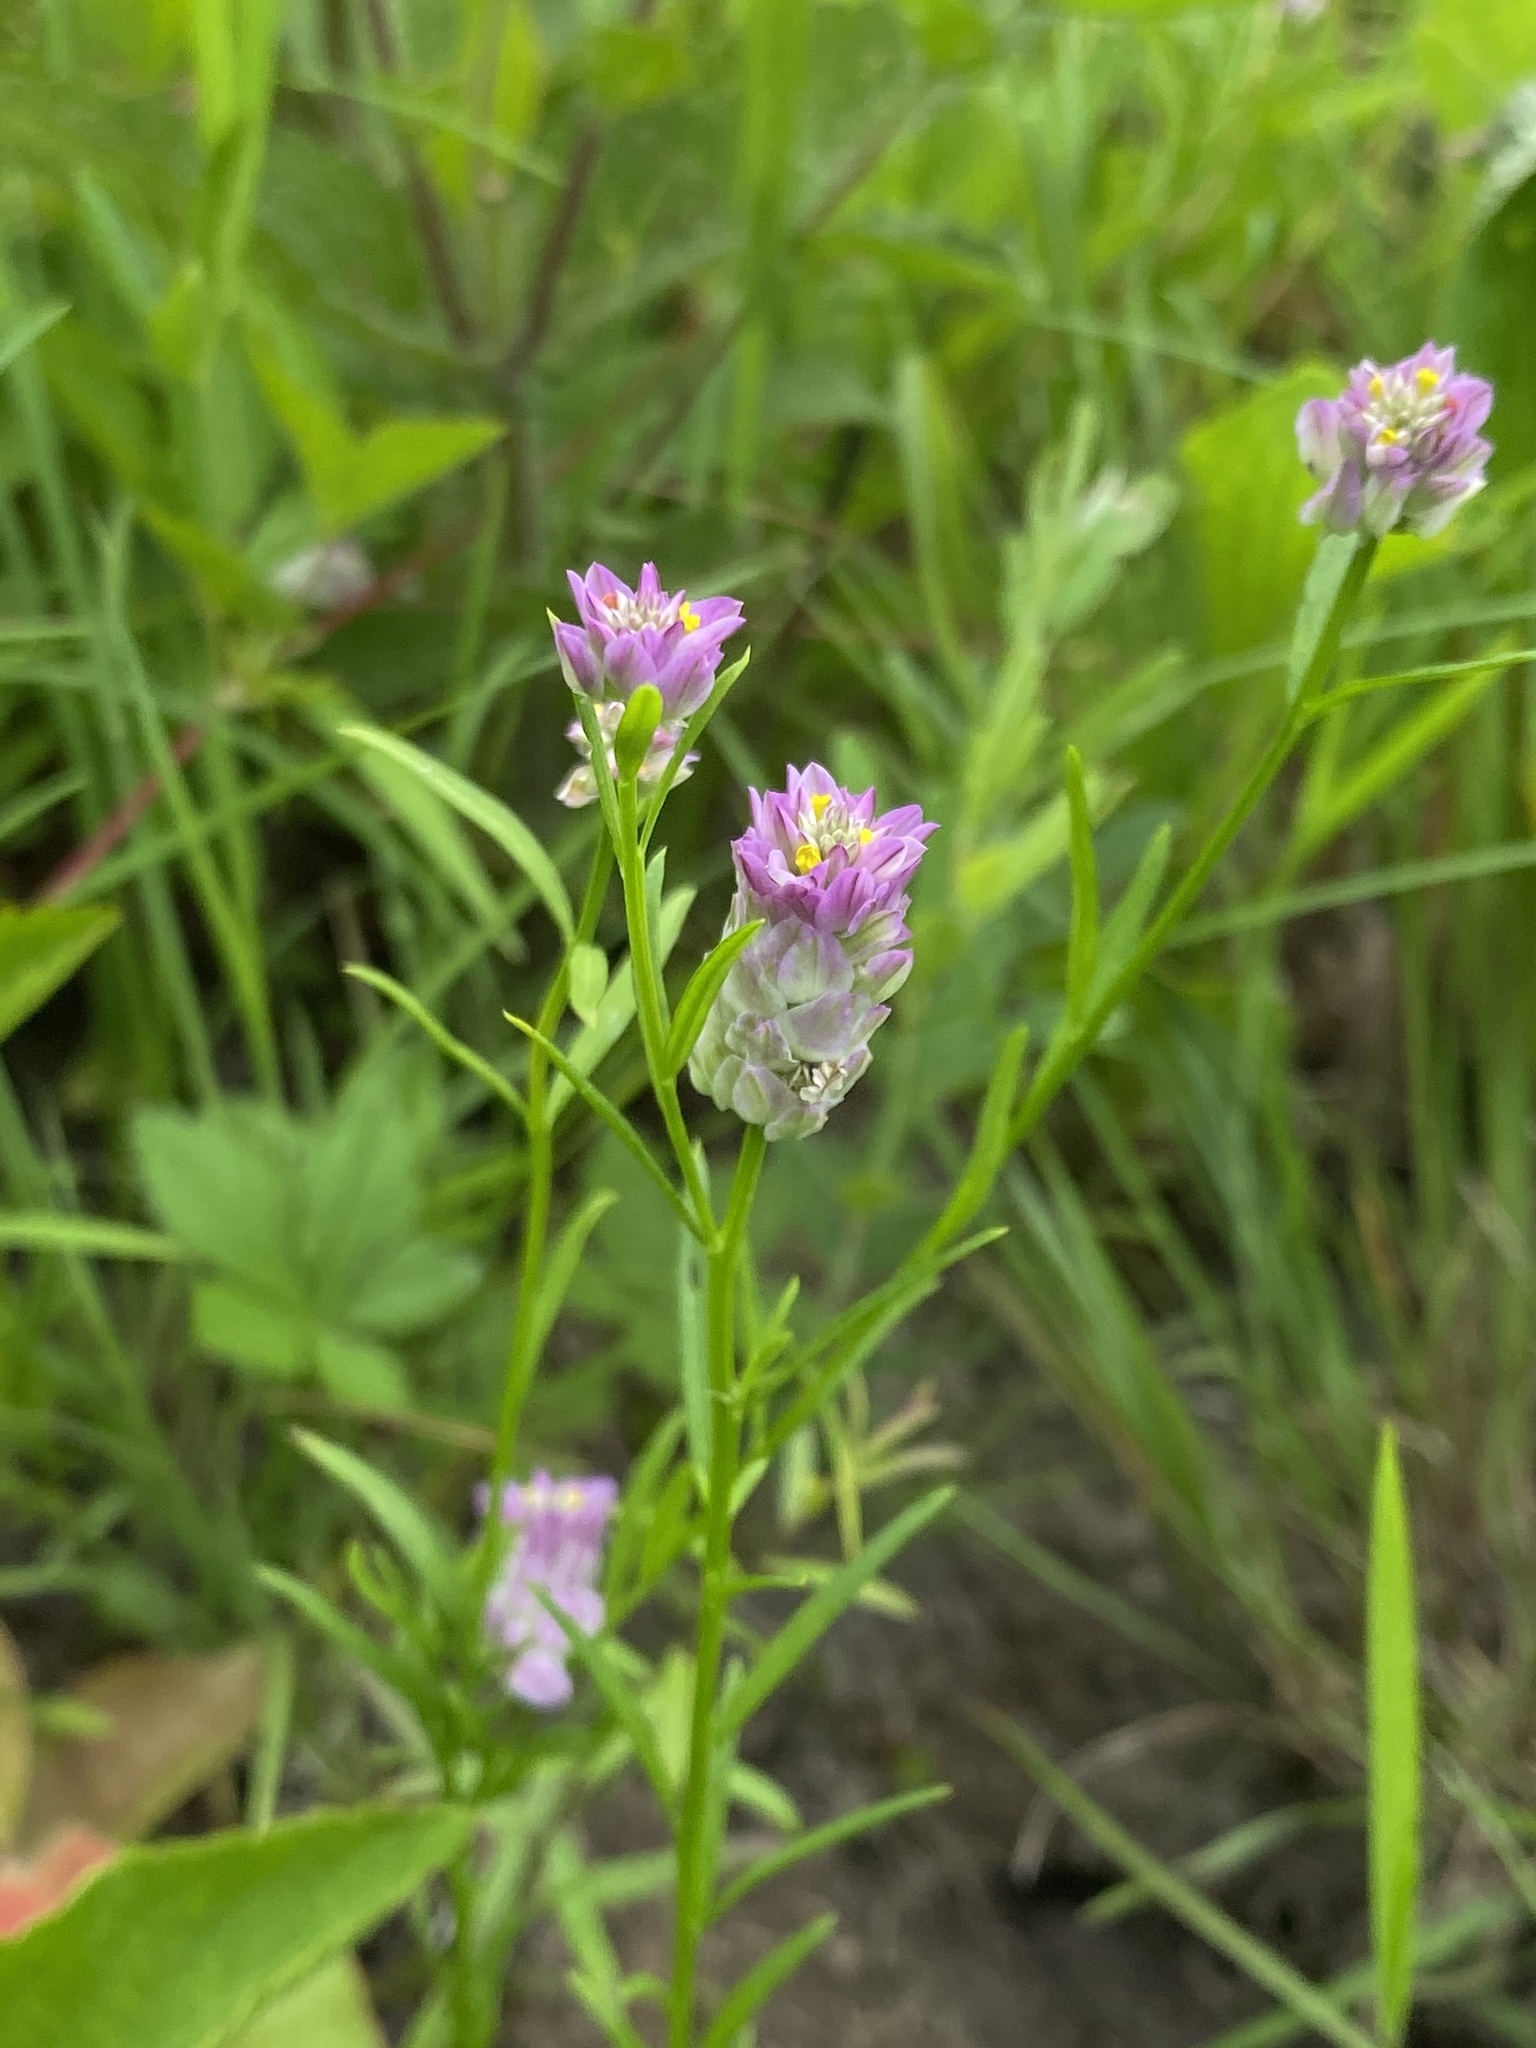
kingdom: Plantae
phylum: Tracheophyta
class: Magnoliopsida
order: Fabales
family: Polygalaceae
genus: Polygala
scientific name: Polygala sanguinea
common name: Blood milkwort
